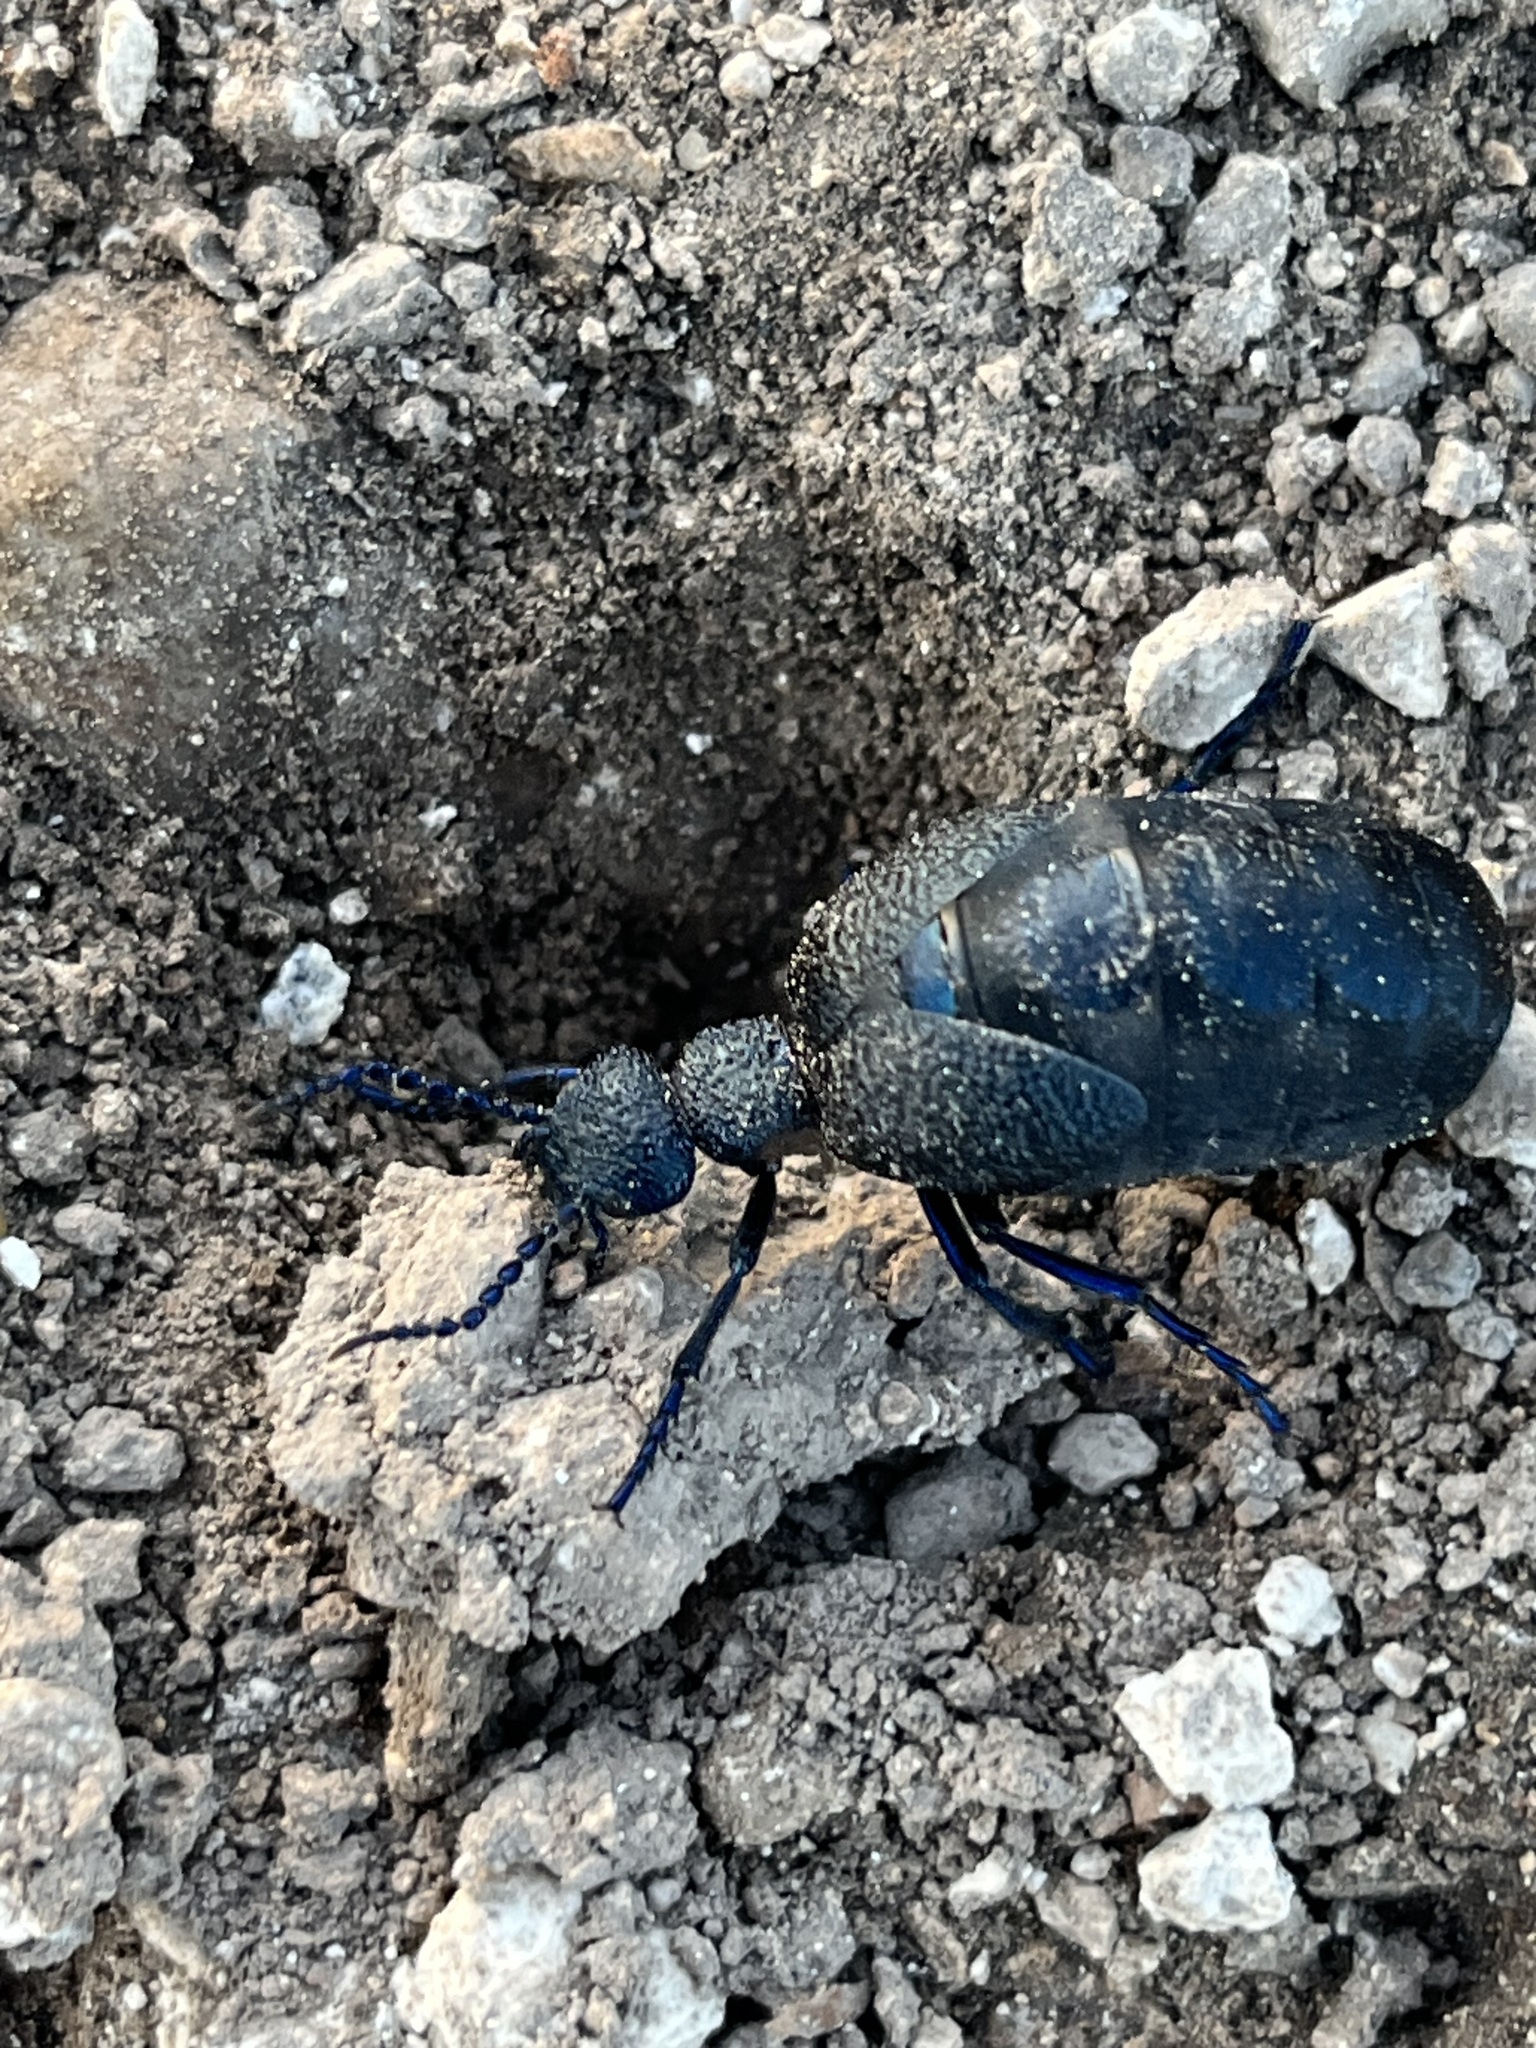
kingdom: Animalia
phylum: Arthropoda
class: Insecta
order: Coleoptera
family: Meloidae
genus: Meloe
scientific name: Meloe proscarabaeus
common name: Black oil-beetle
